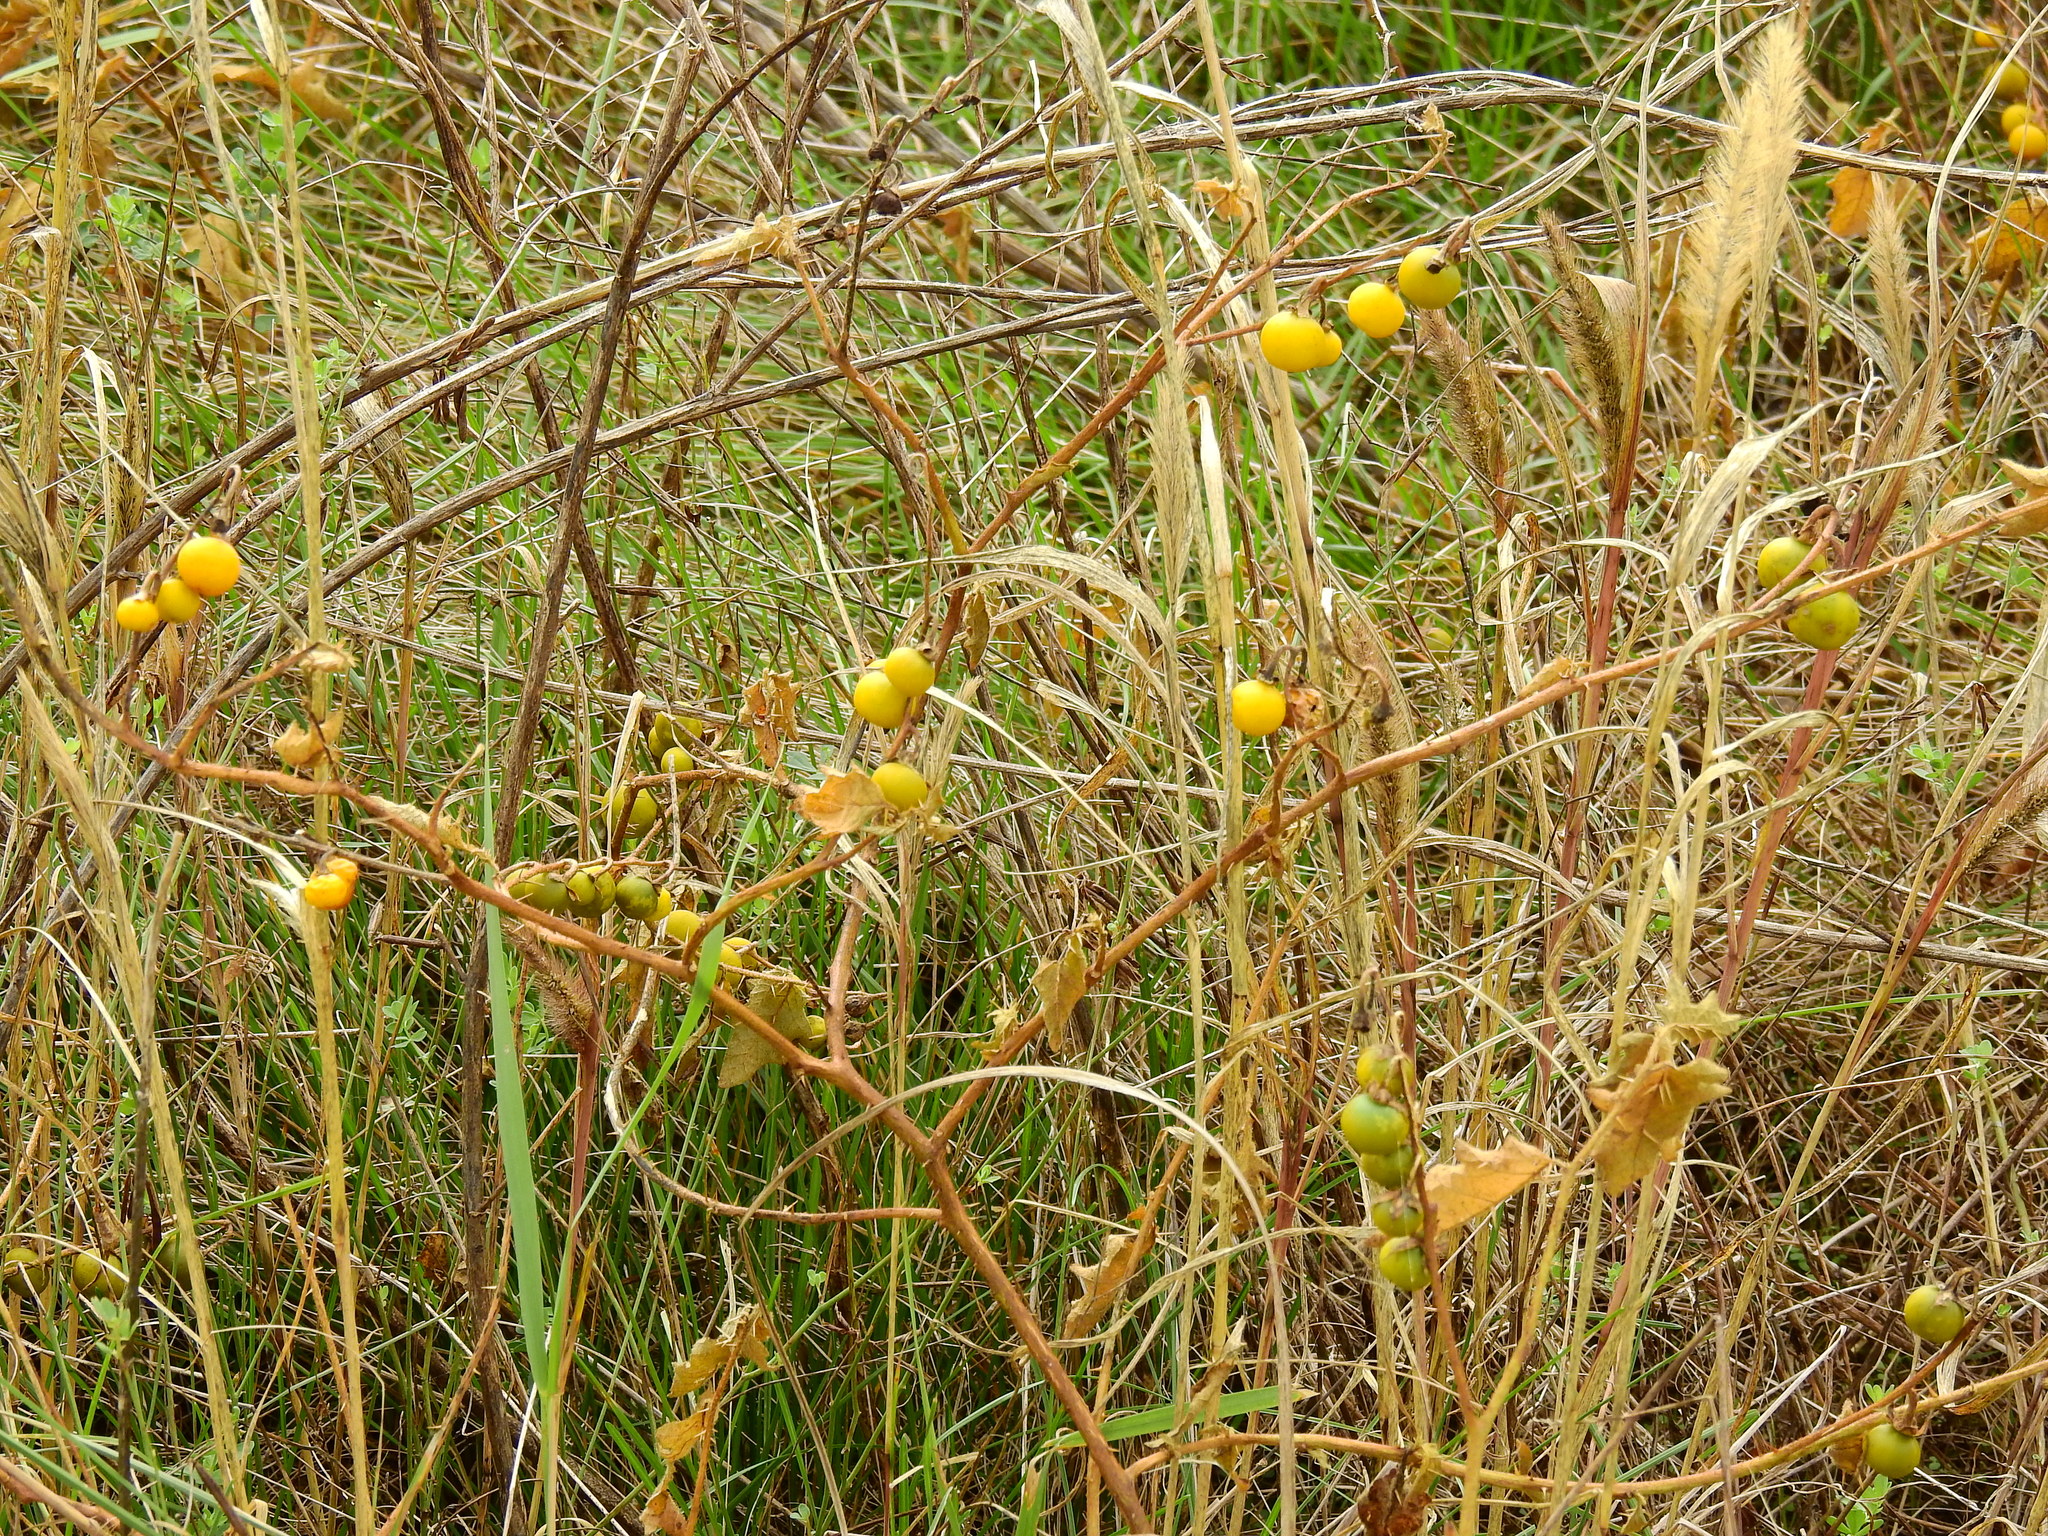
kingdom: Plantae
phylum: Tracheophyta
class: Magnoliopsida
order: Solanales
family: Solanaceae
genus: Solanum
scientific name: Solanum carolinense
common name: Horse-nettle
